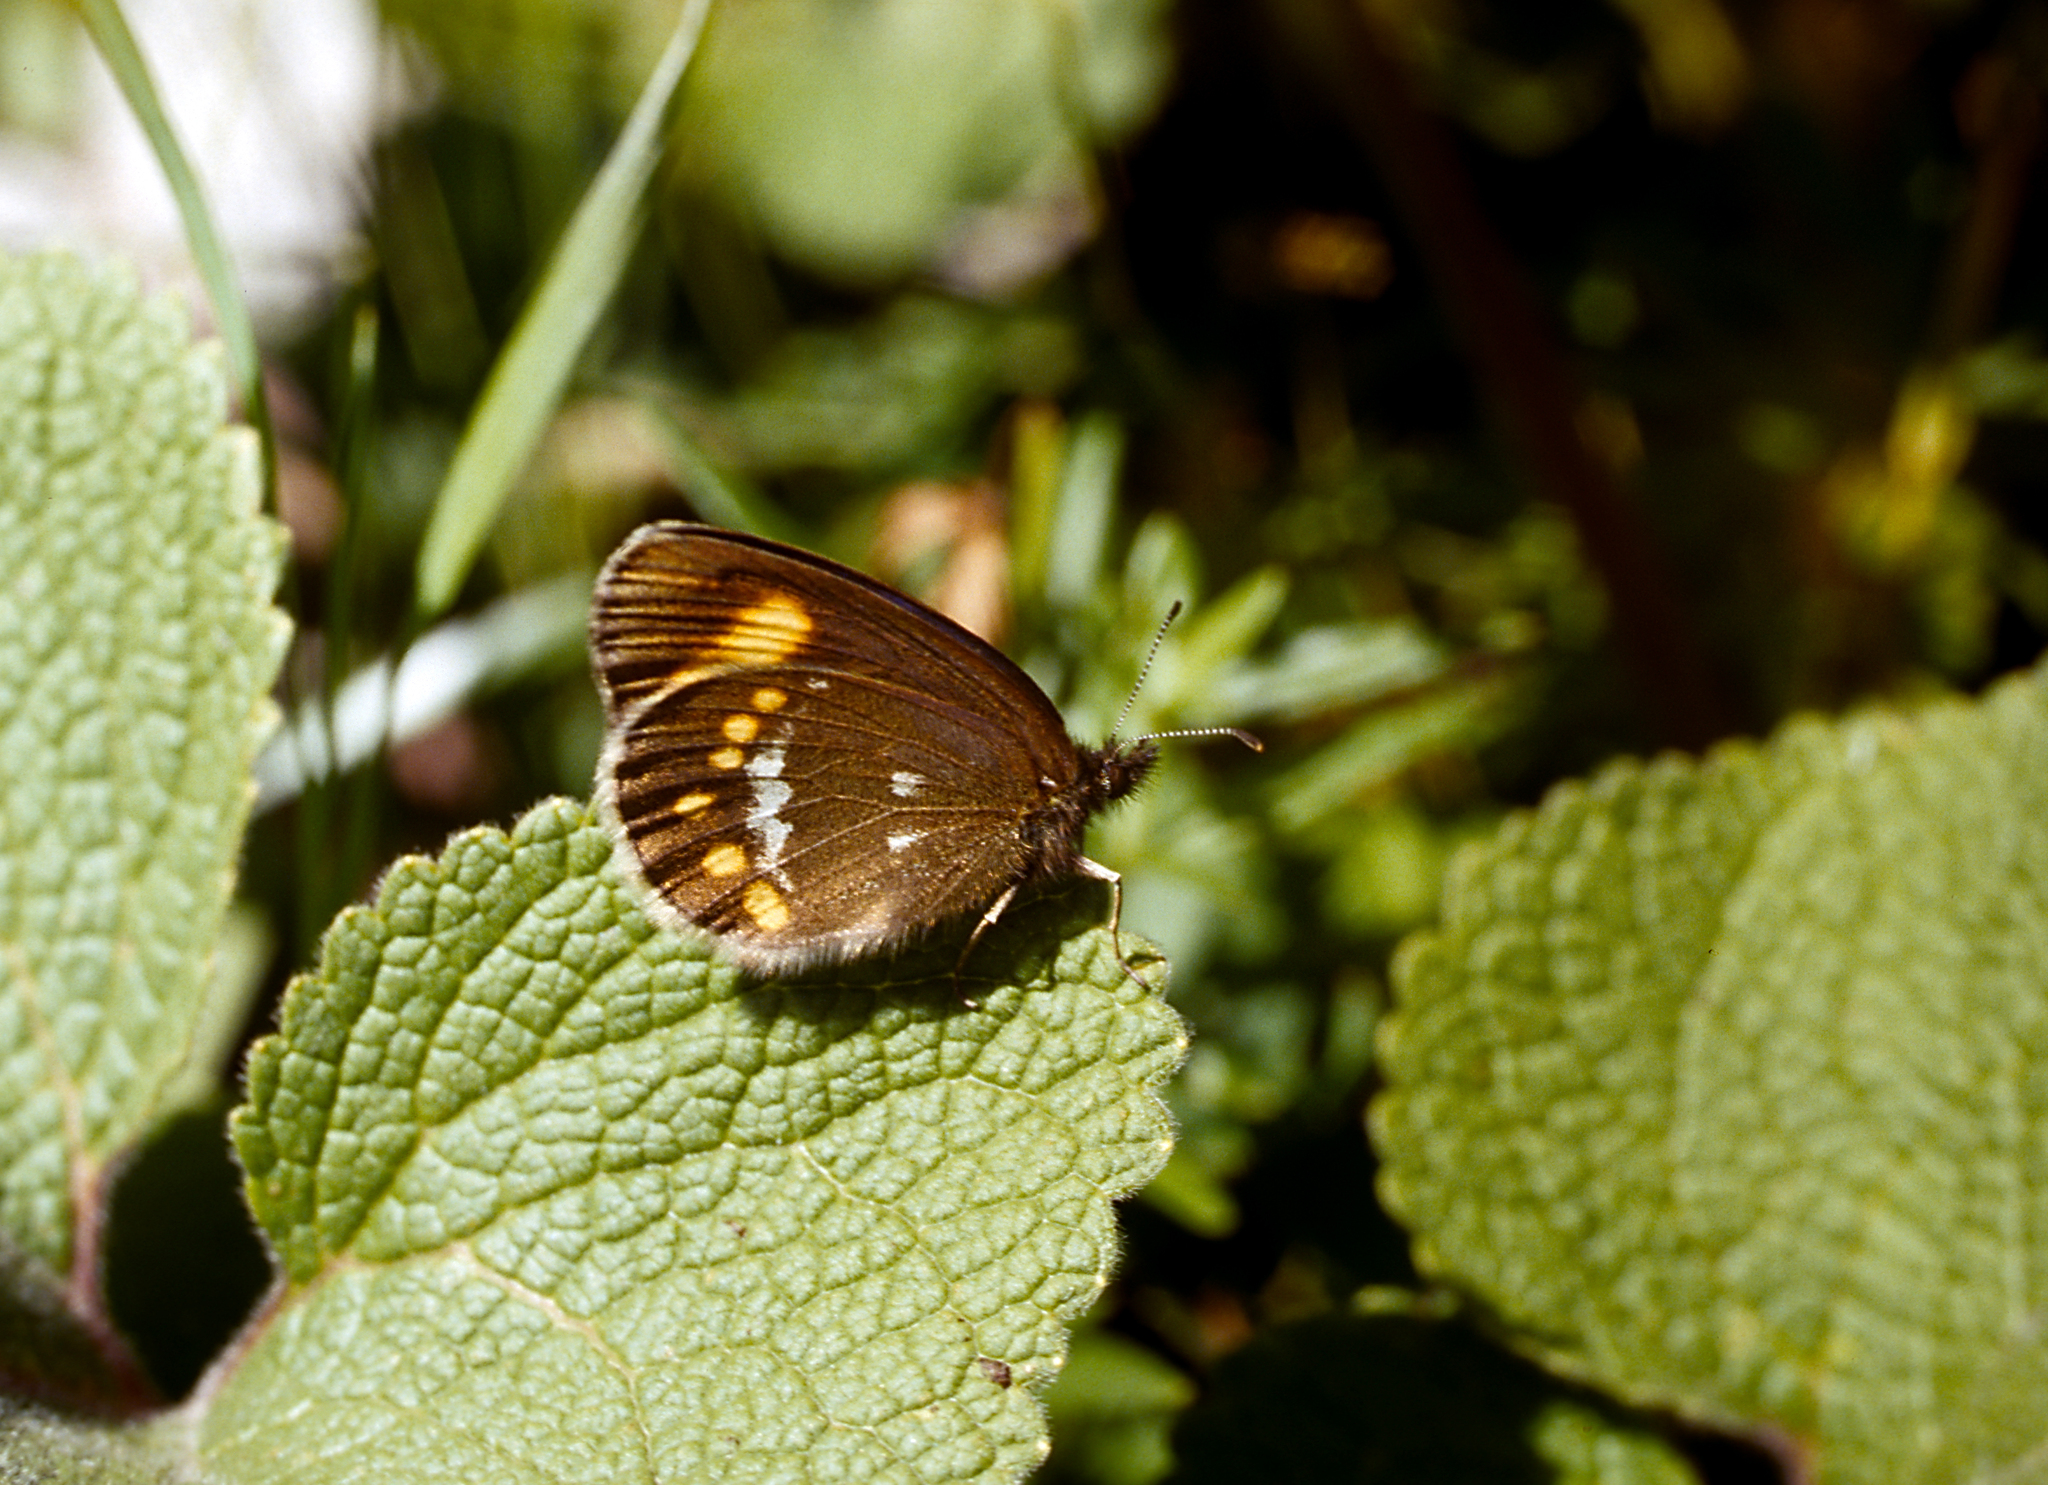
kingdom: Animalia
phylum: Arthropoda
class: Insecta
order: Lepidoptera
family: Nymphalidae
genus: Erebia
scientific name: Erebia turanica
